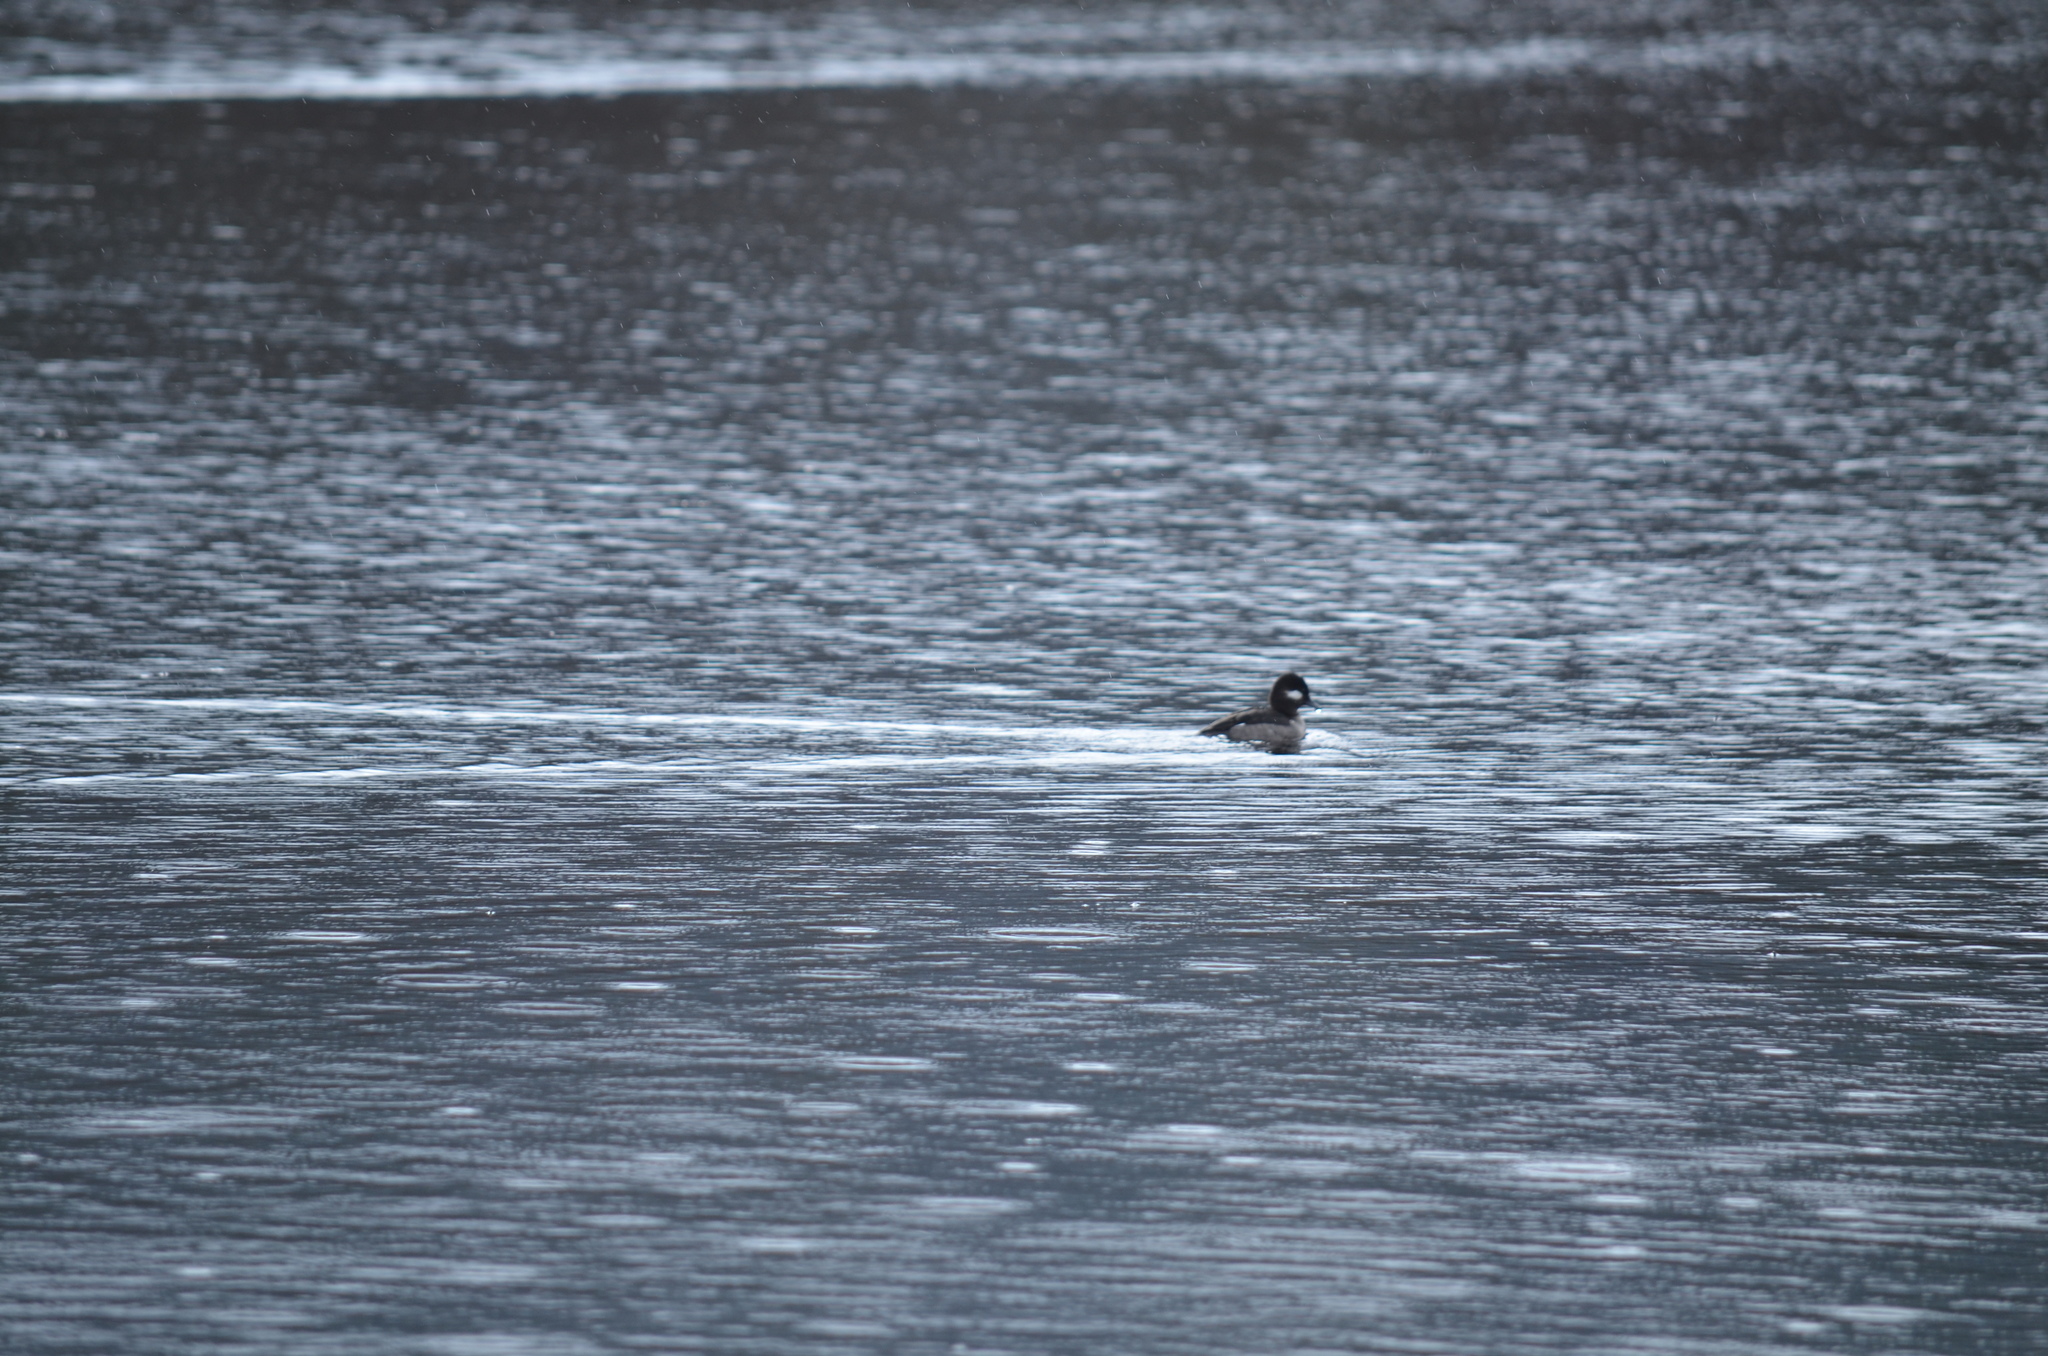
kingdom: Animalia
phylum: Chordata
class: Aves
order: Anseriformes
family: Anatidae
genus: Bucephala
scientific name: Bucephala albeola
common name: Bufflehead
